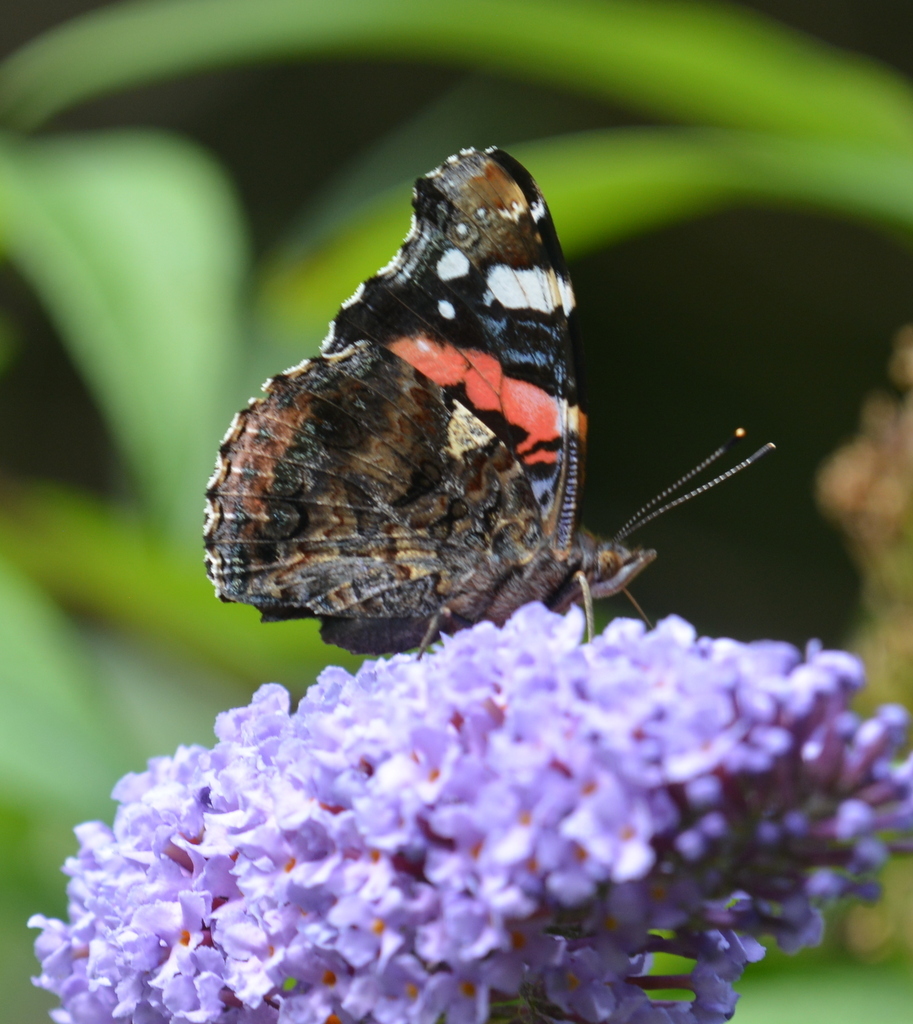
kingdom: Animalia
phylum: Arthropoda
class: Insecta
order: Lepidoptera
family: Nymphalidae
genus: Vanessa
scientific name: Vanessa atalanta
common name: Red admiral
